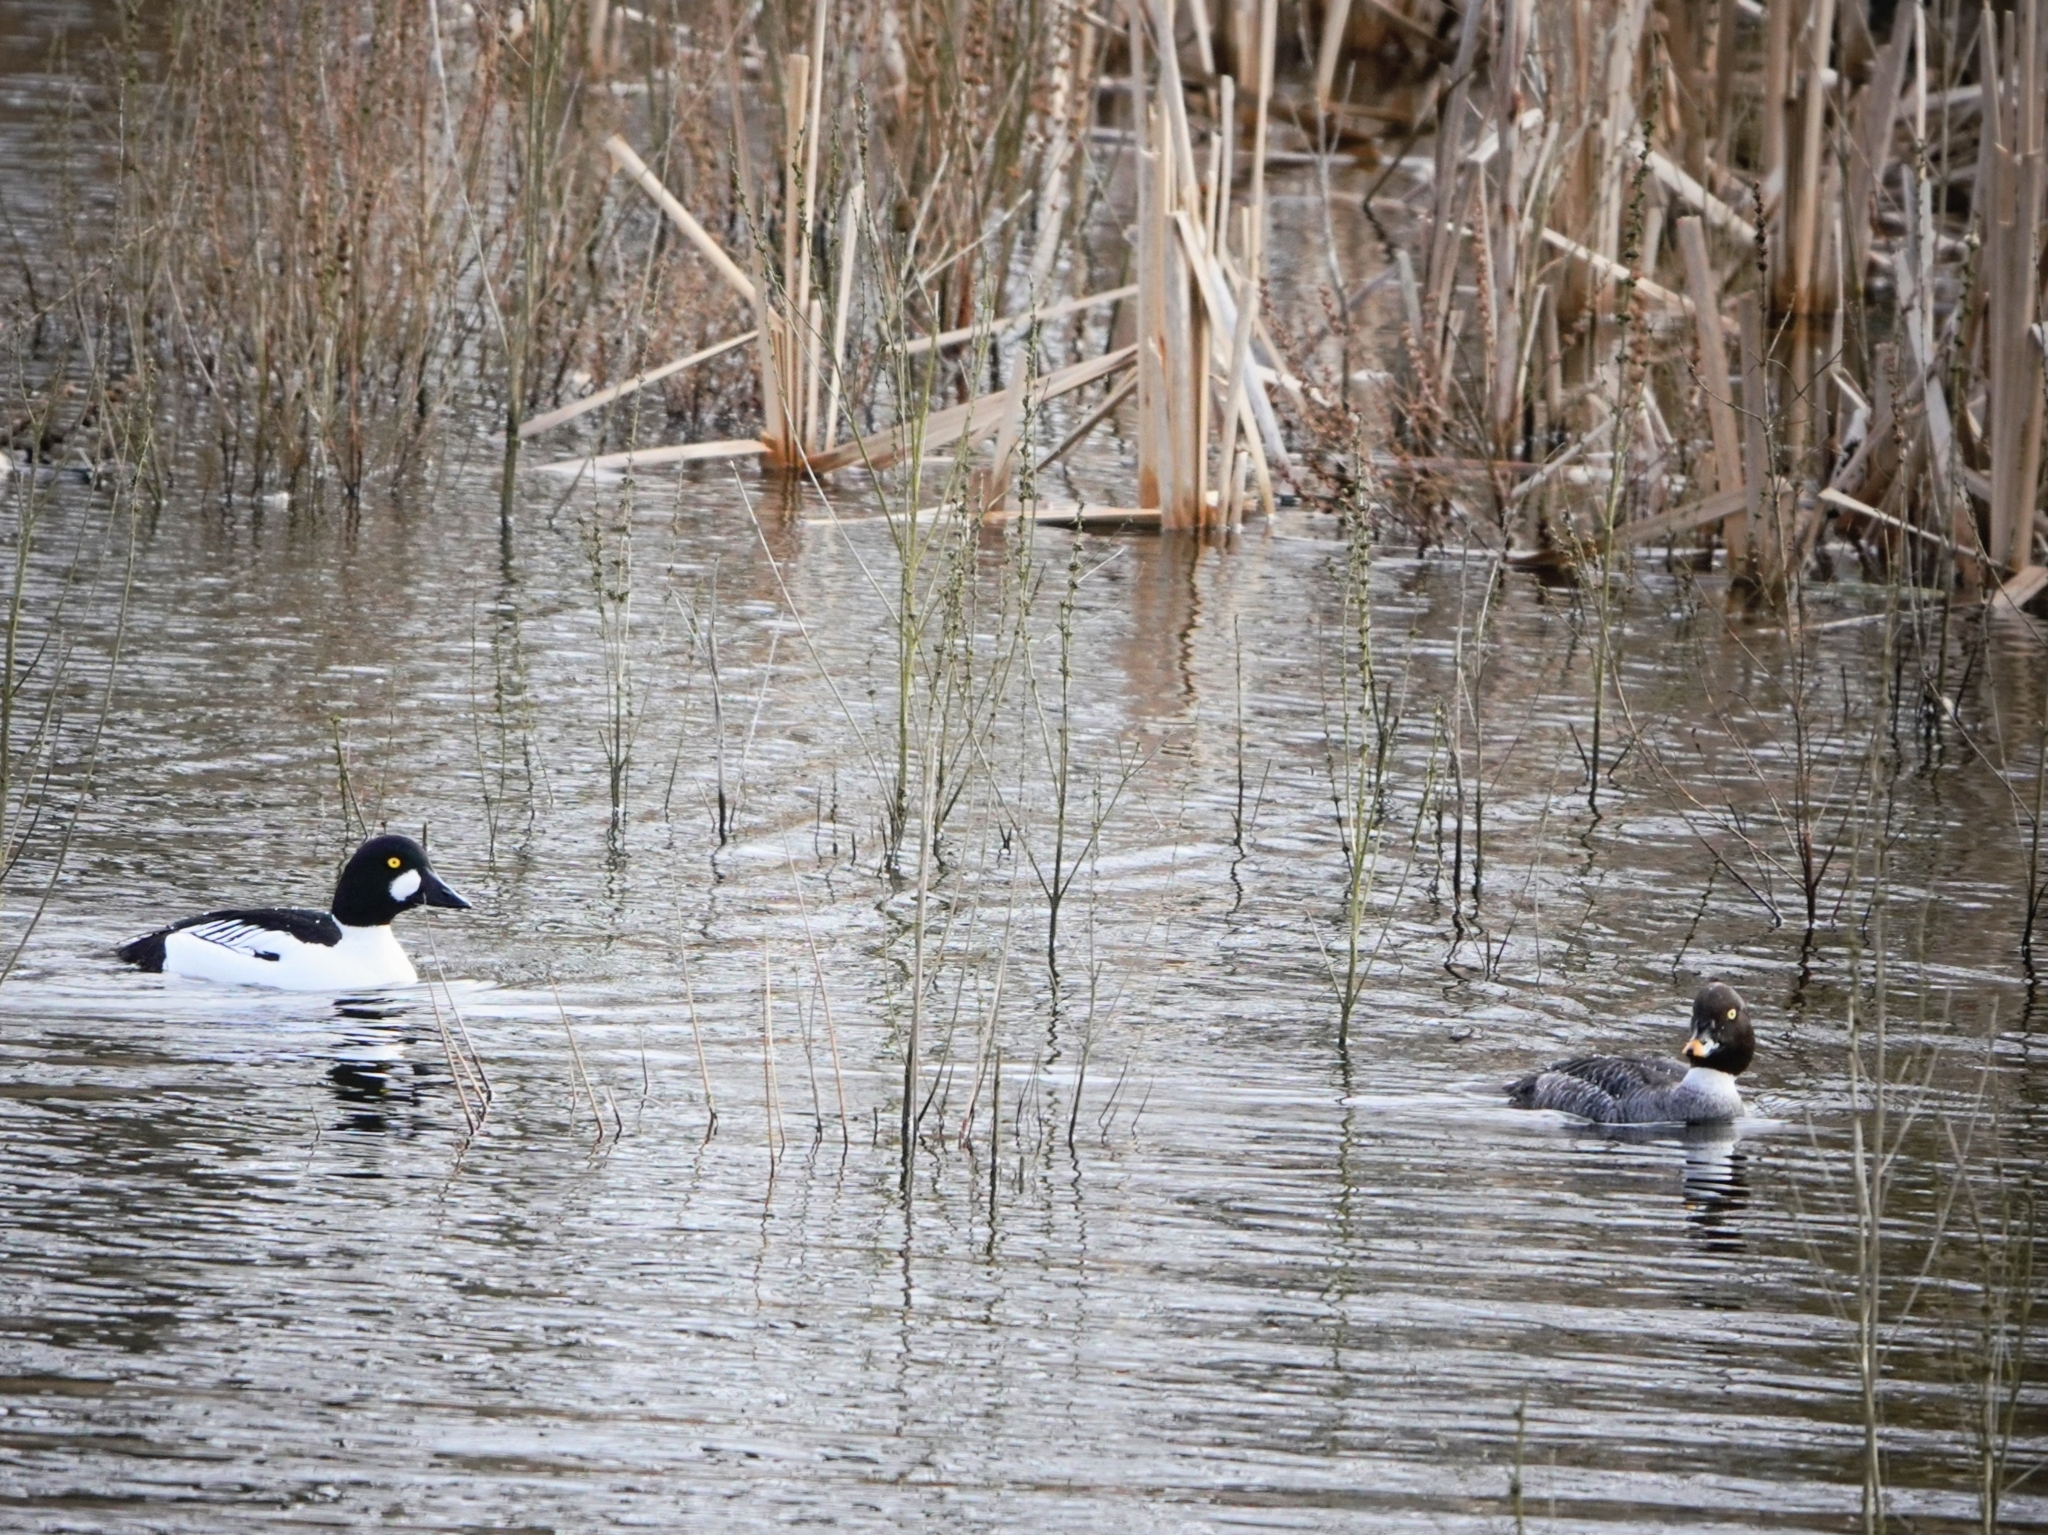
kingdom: Animalia
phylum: Chordata
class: Aves
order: Anseriformes
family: Anatidae
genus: Bucephala
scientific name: Bucephala clangula
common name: Common goldeneye
